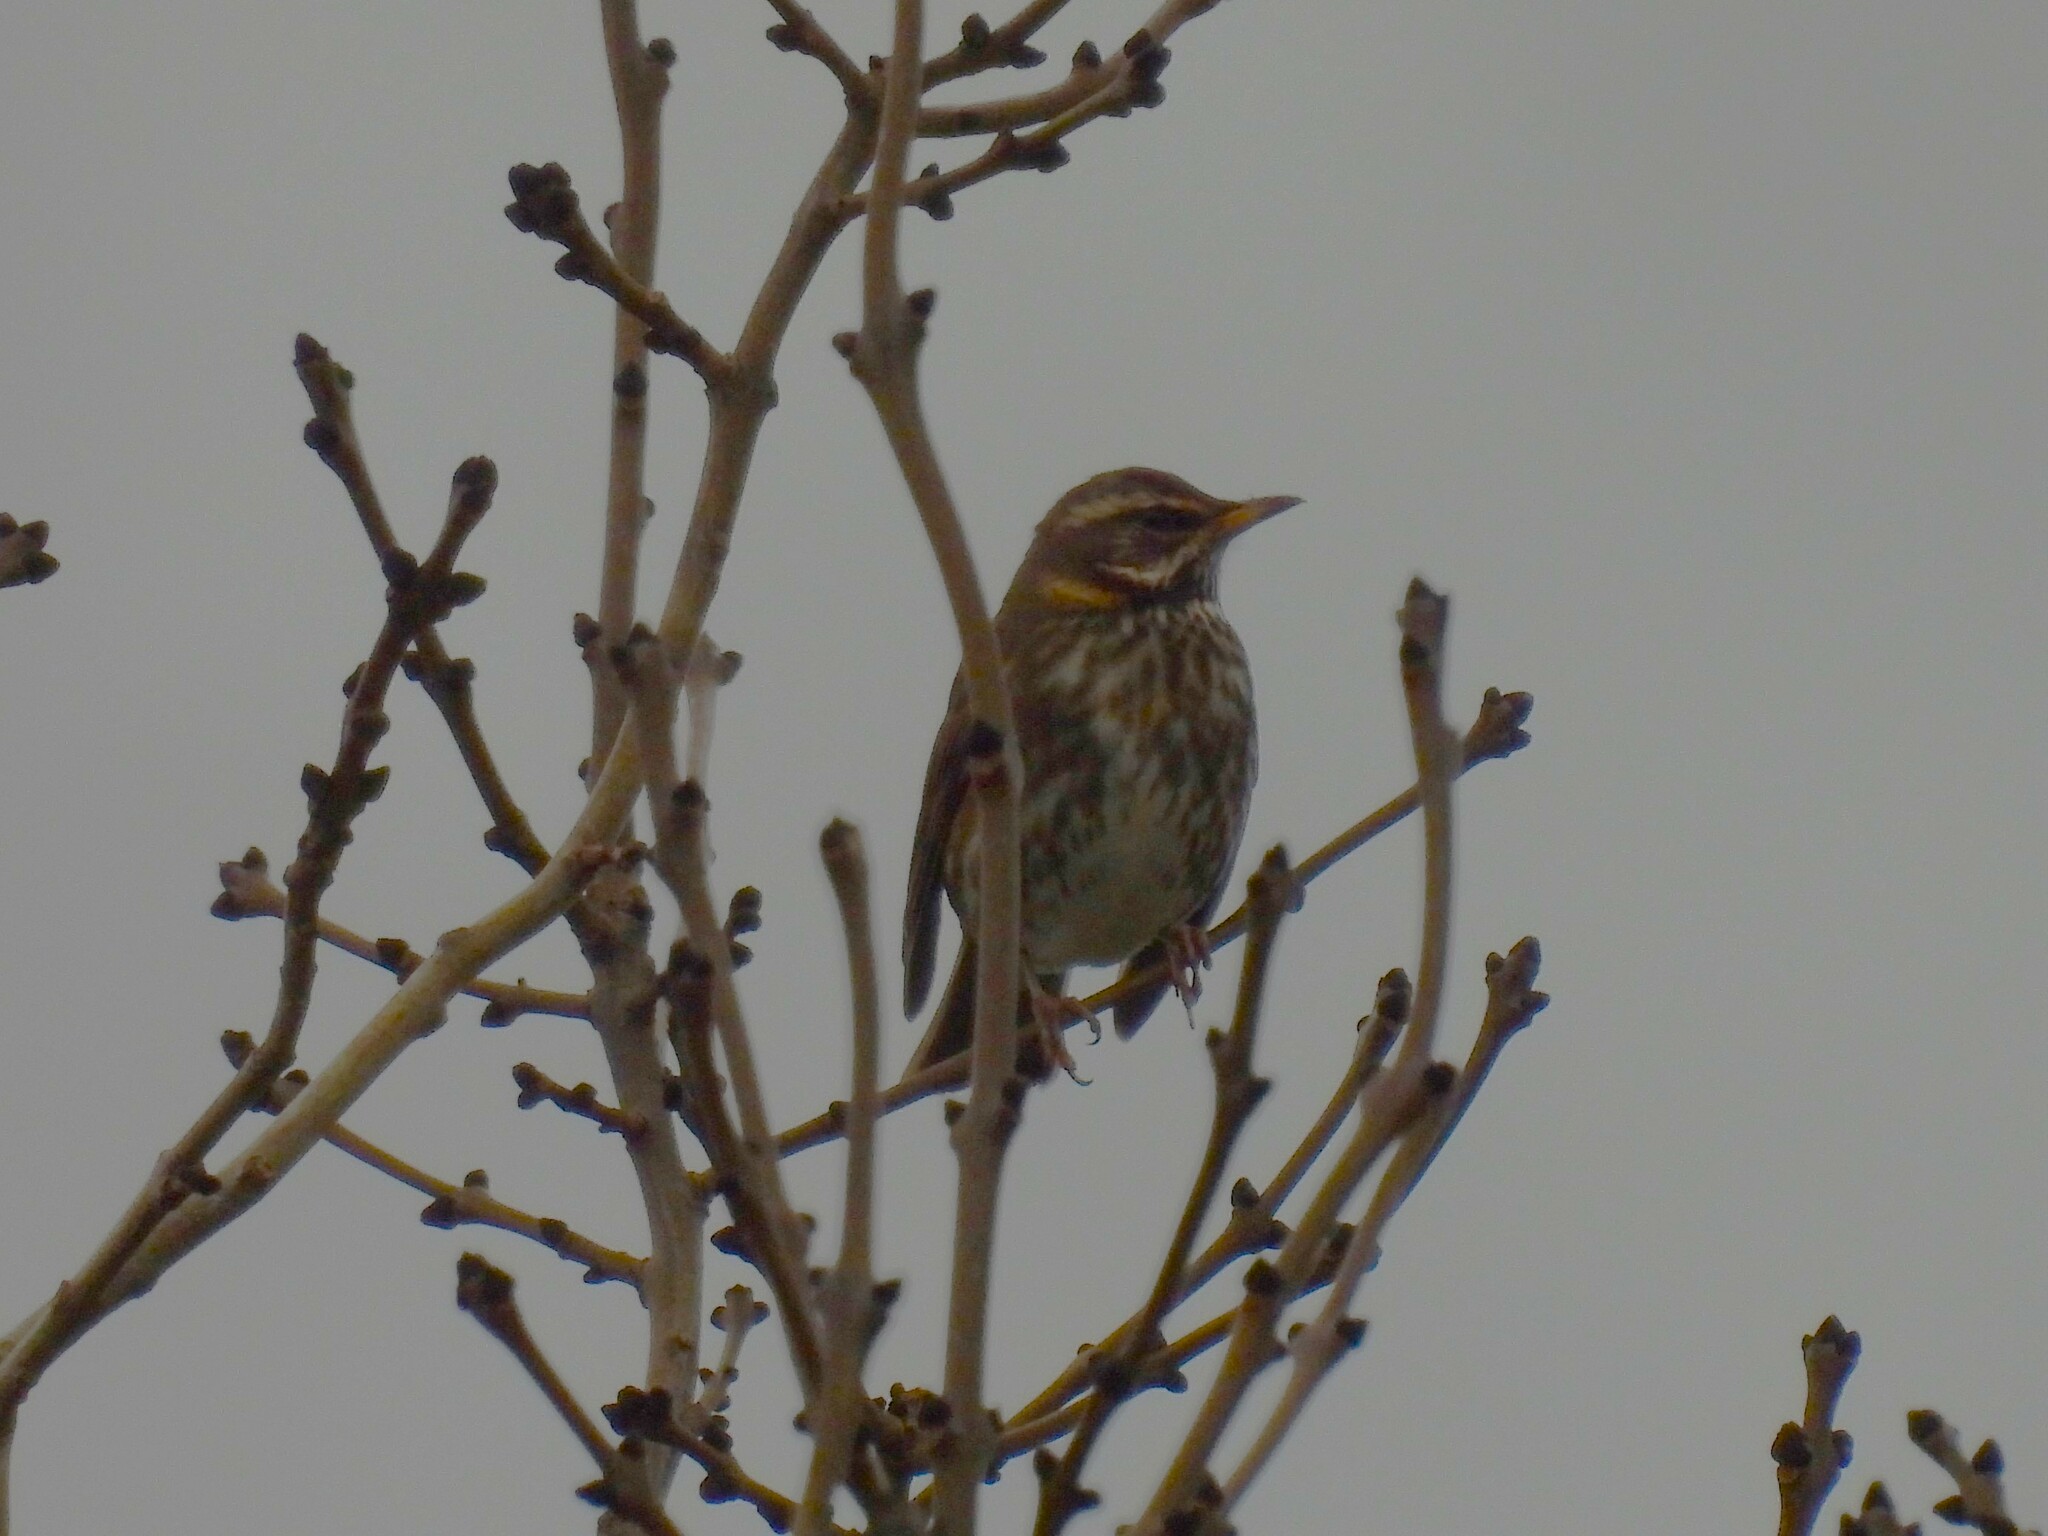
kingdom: Animalia
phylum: Chordata
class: Aves
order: Passeriformes
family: Turdidae
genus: Turdus
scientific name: Turdus iliacus
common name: Redwing
